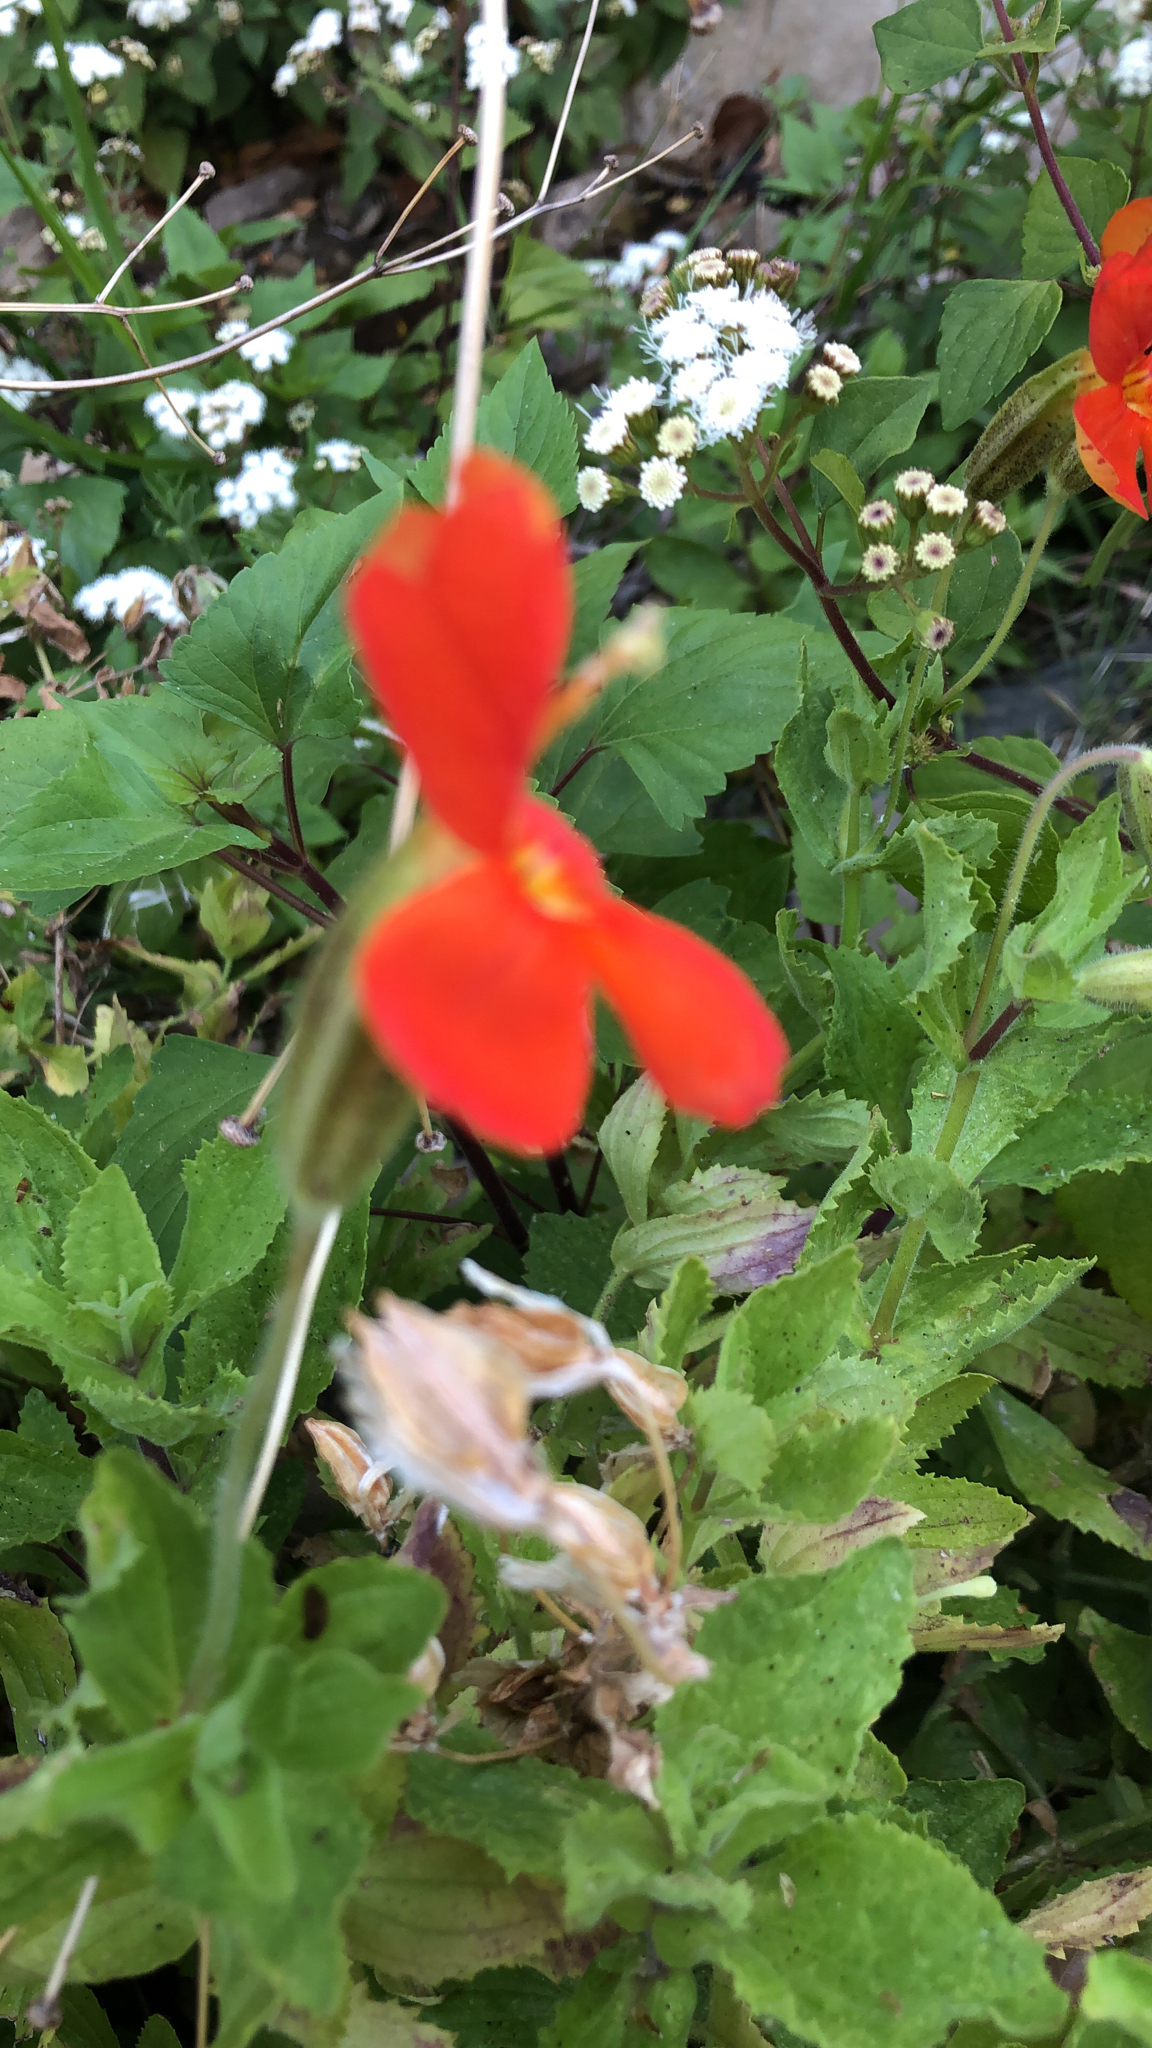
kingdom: Plantae
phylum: Tracheophyta
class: Magnoliopsida
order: Lamiales
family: Phrymaceae
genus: Erythranthe
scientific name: Erythranthe cardinalis
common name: Scarlet monkey-flower
